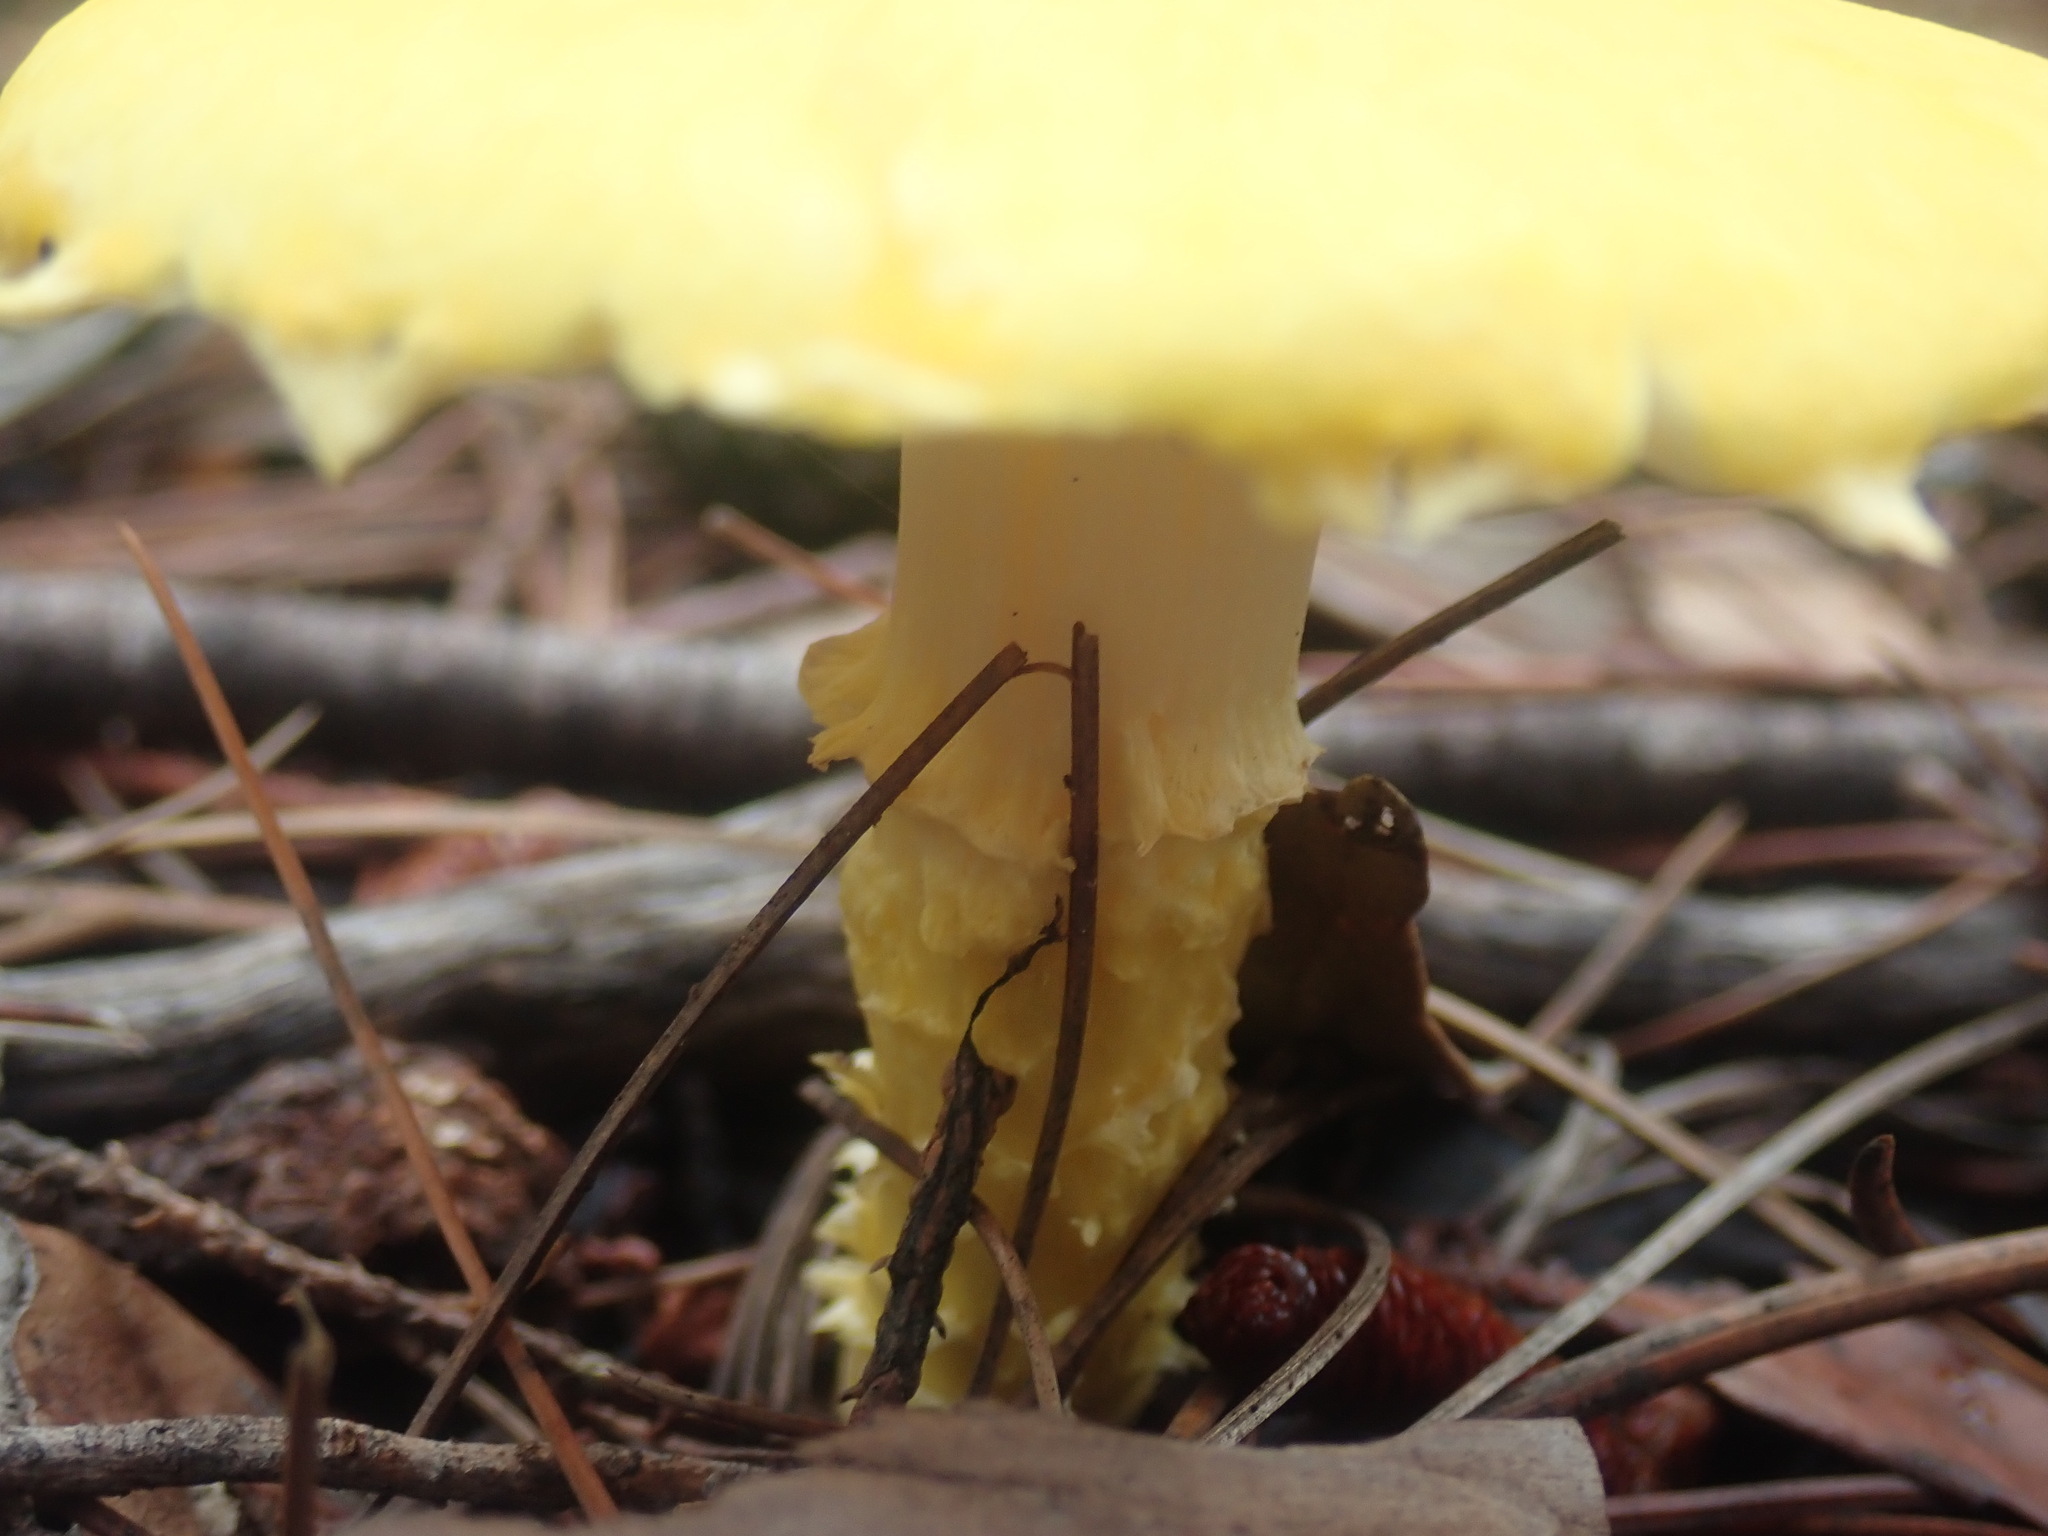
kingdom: Fungi
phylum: Basidiomycota
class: Agaricomycetes
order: Agaricales
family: Agaricaceae
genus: Floccularia
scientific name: Floccularia albolanaripes
